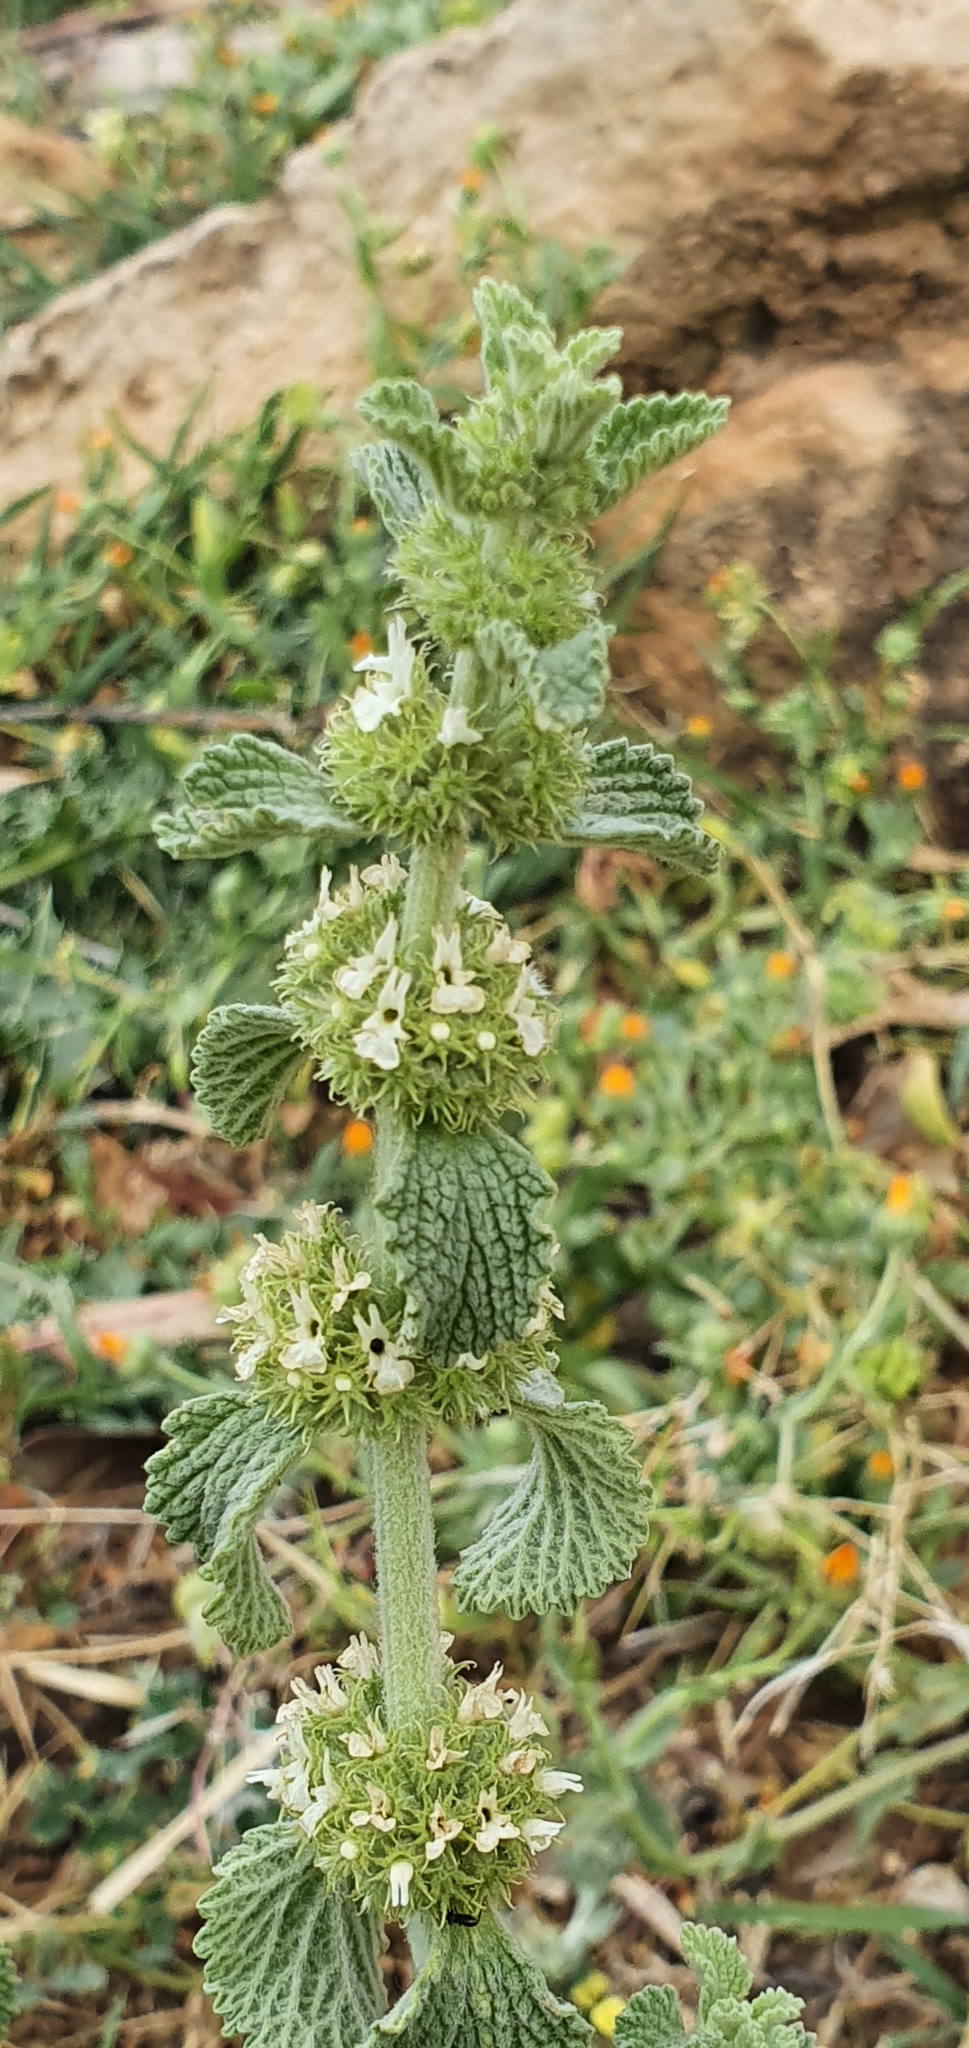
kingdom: Plantae
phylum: Tracheophyta
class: Magnoliopsida
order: Lamiales
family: Lamiaceae
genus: Marrubium
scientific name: Marrubium vulgare
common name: Horehound
